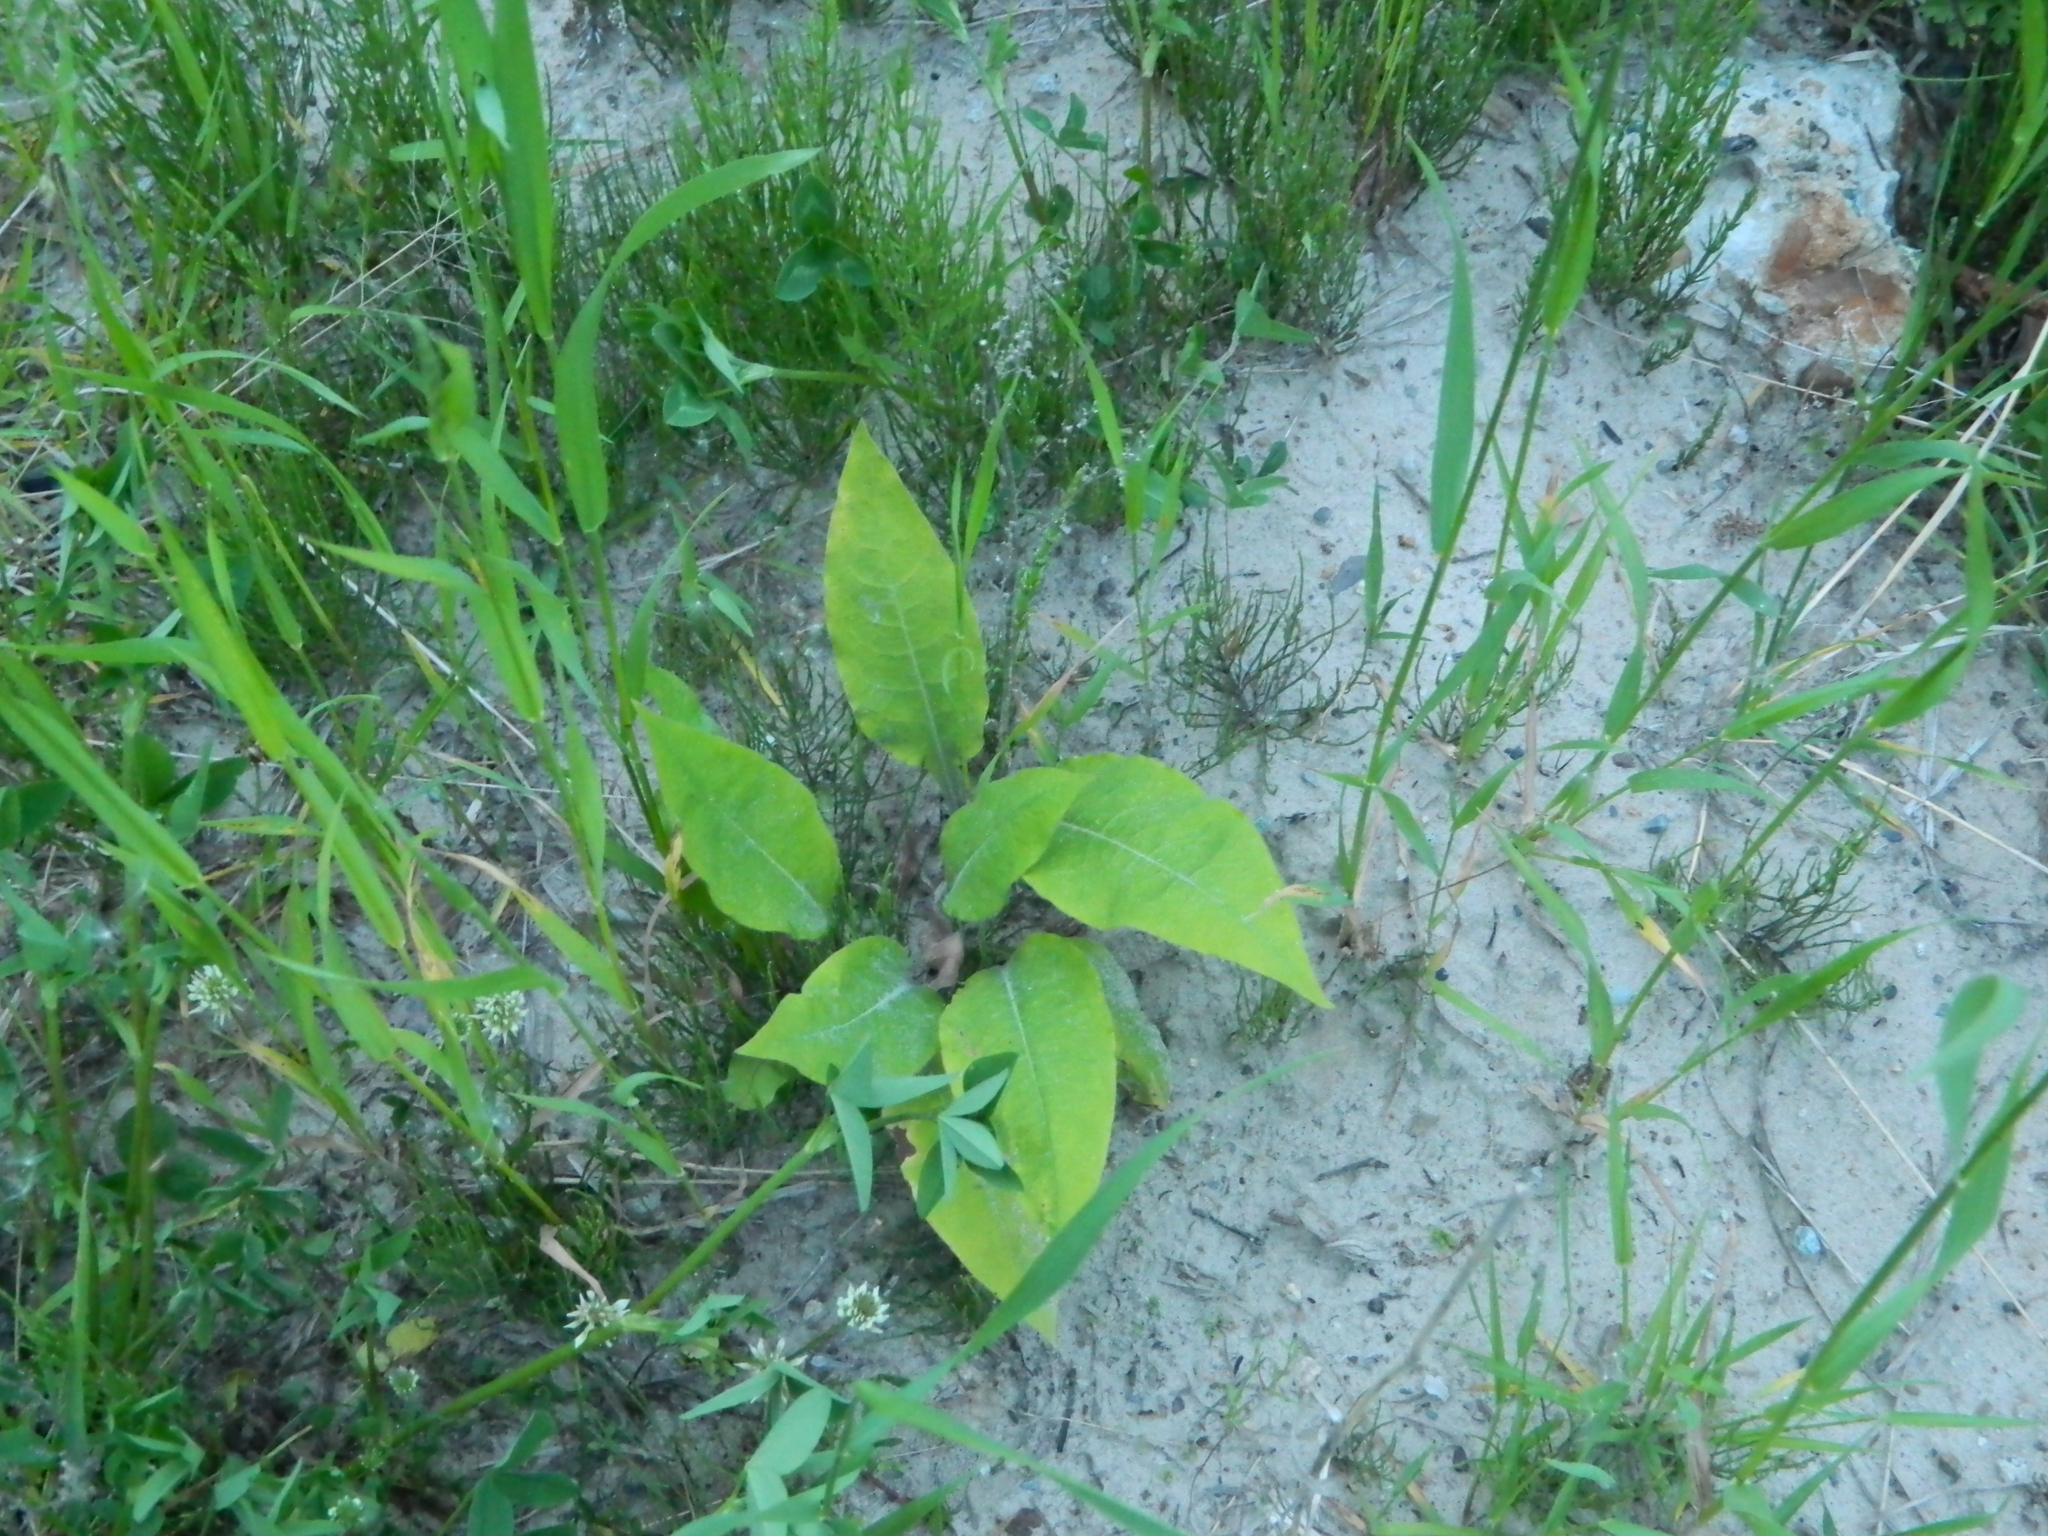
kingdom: Plantae
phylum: Tracheophyta
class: Magnoliopsida
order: Boraginales
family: Boraginaceae
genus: Pulmonaria
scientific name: Pulmonaria mollis
